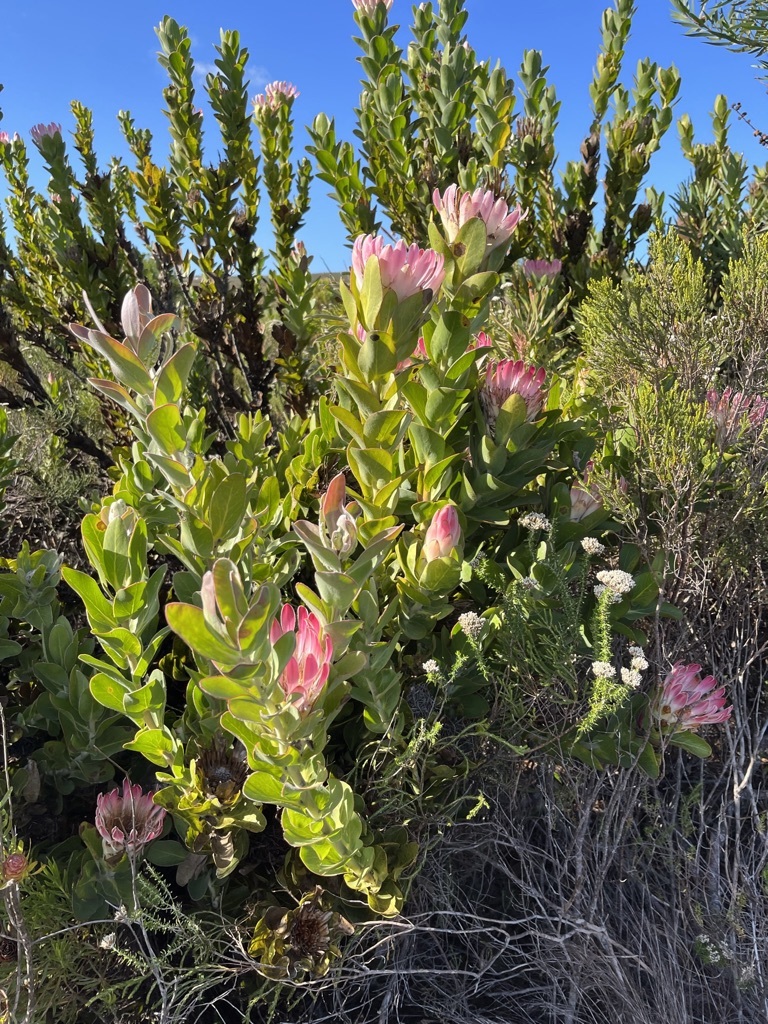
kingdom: Plantae
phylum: Tracheophyta
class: Magnoliopsida
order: Proteales
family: Proteaceae
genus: Protea
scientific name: Protea compacta
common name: Bot river protea
